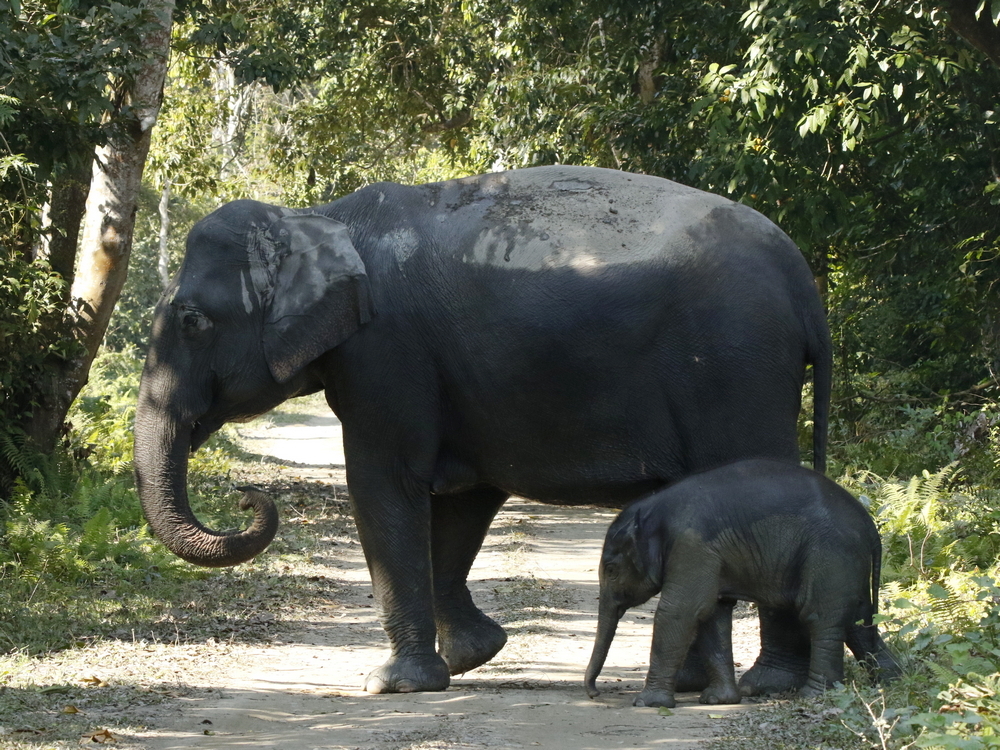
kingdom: Animalia
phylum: Chordata
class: Mammalia
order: Proboscidea
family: Elephantidae
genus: Elephas
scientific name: Elephas maximus
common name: Asian elephant
